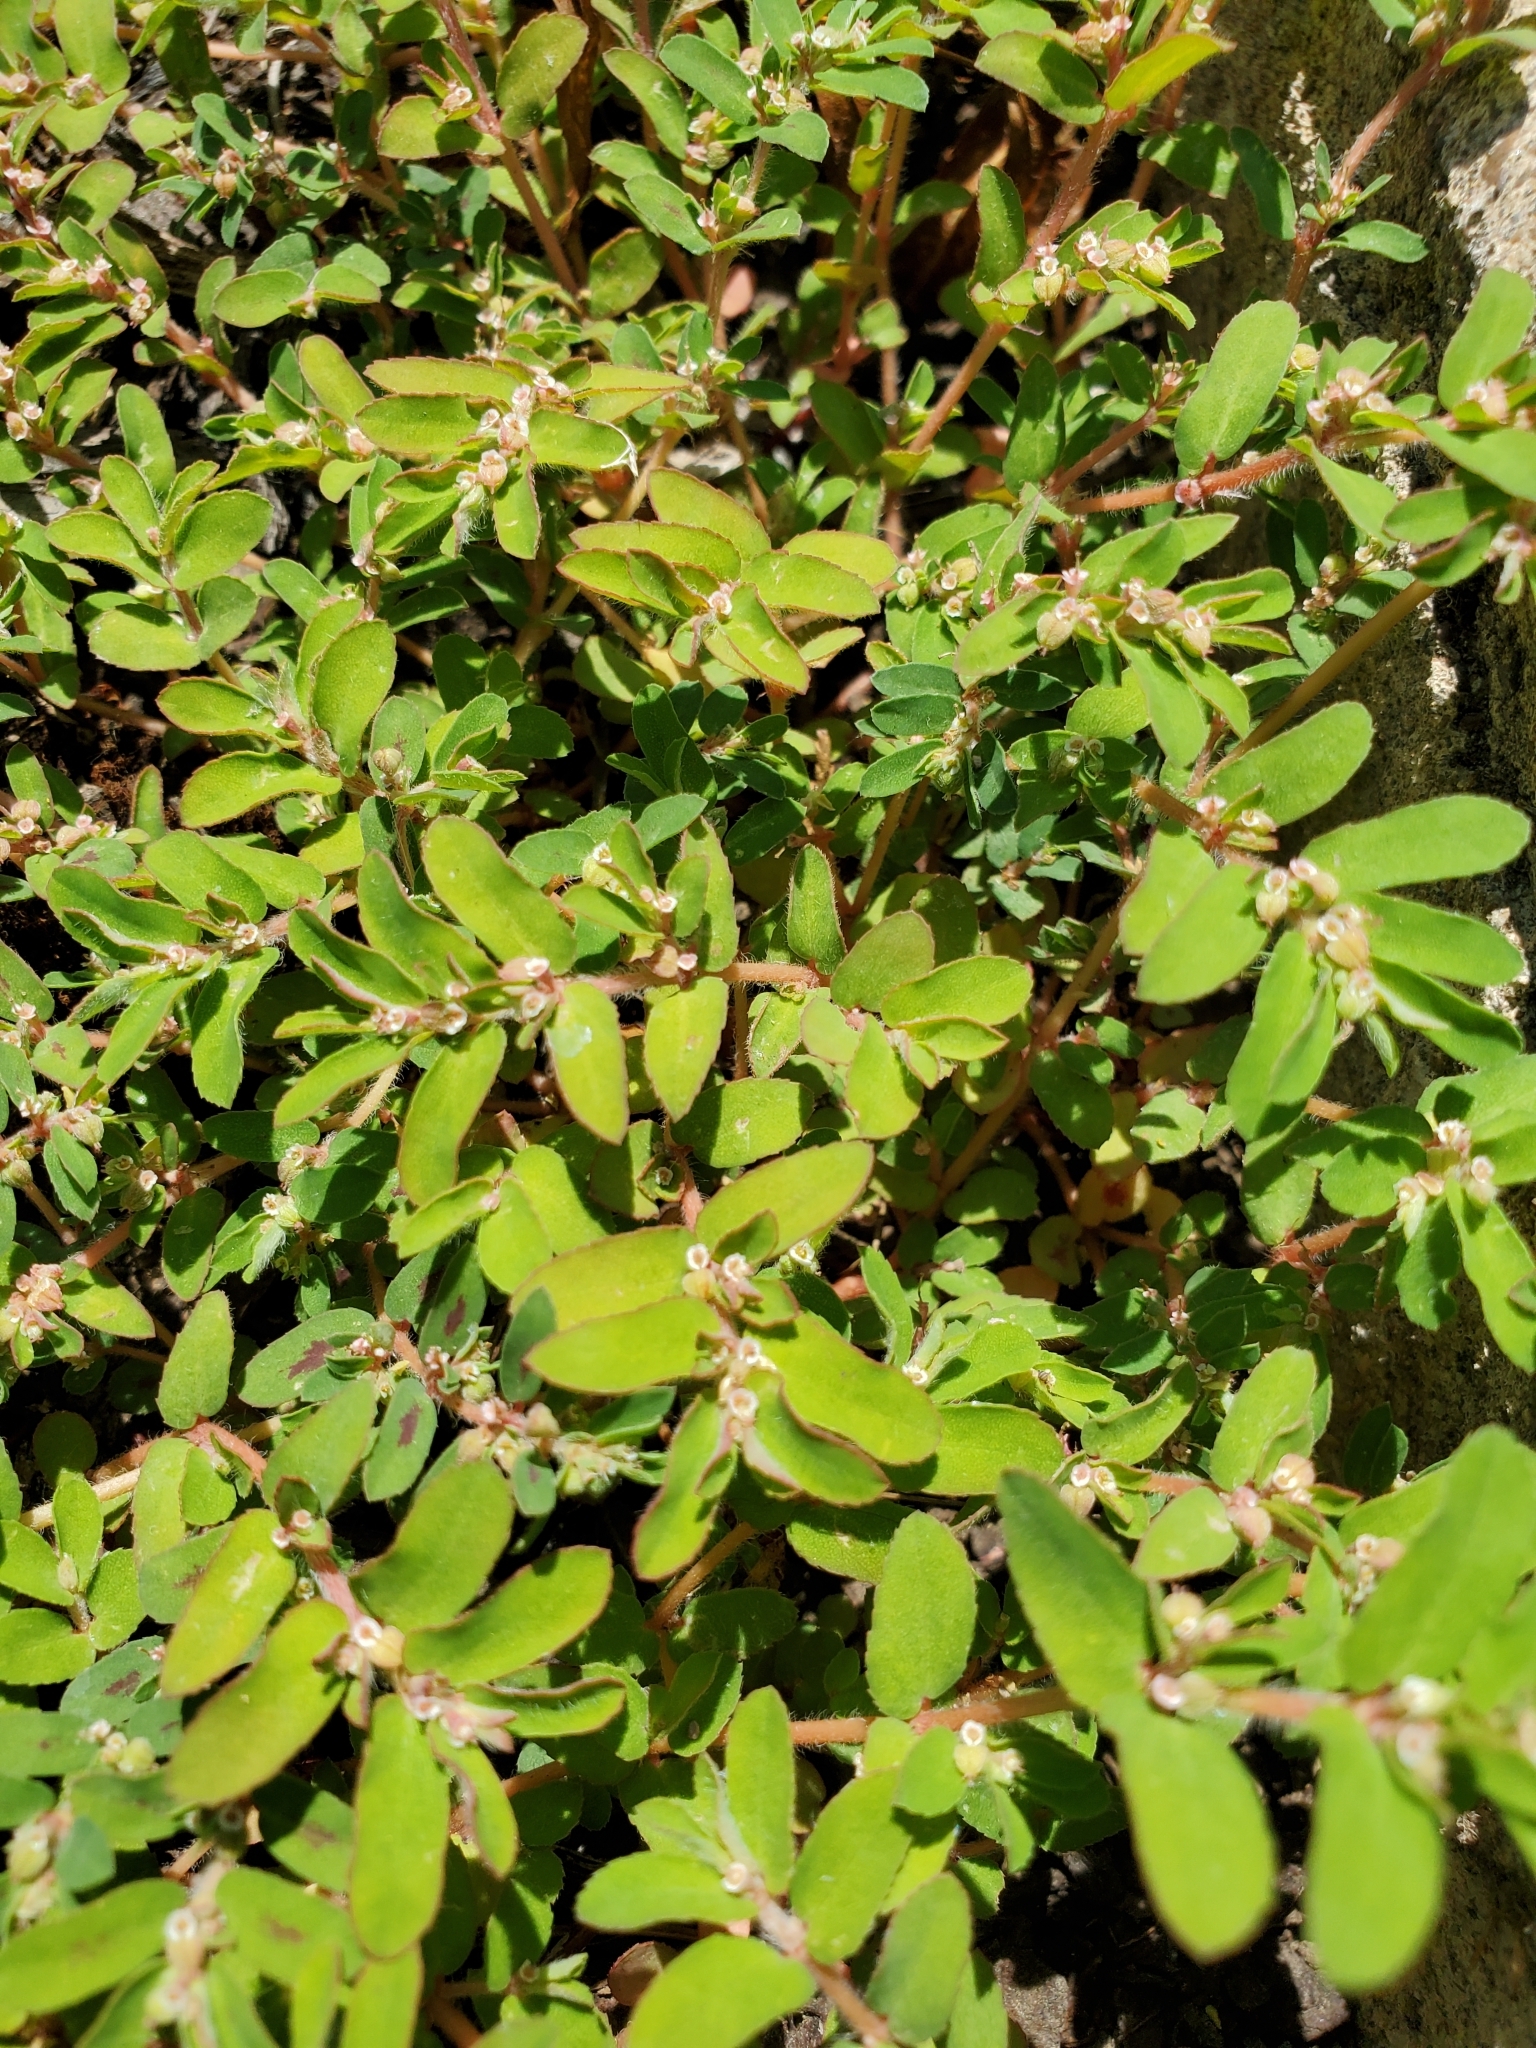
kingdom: Plantae
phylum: Tracheophyta
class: Magnoliopsida
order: Malpighiales
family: Euphorbiaceae
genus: Euphorbia
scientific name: Euphorbia maculata
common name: Spotted spurge
